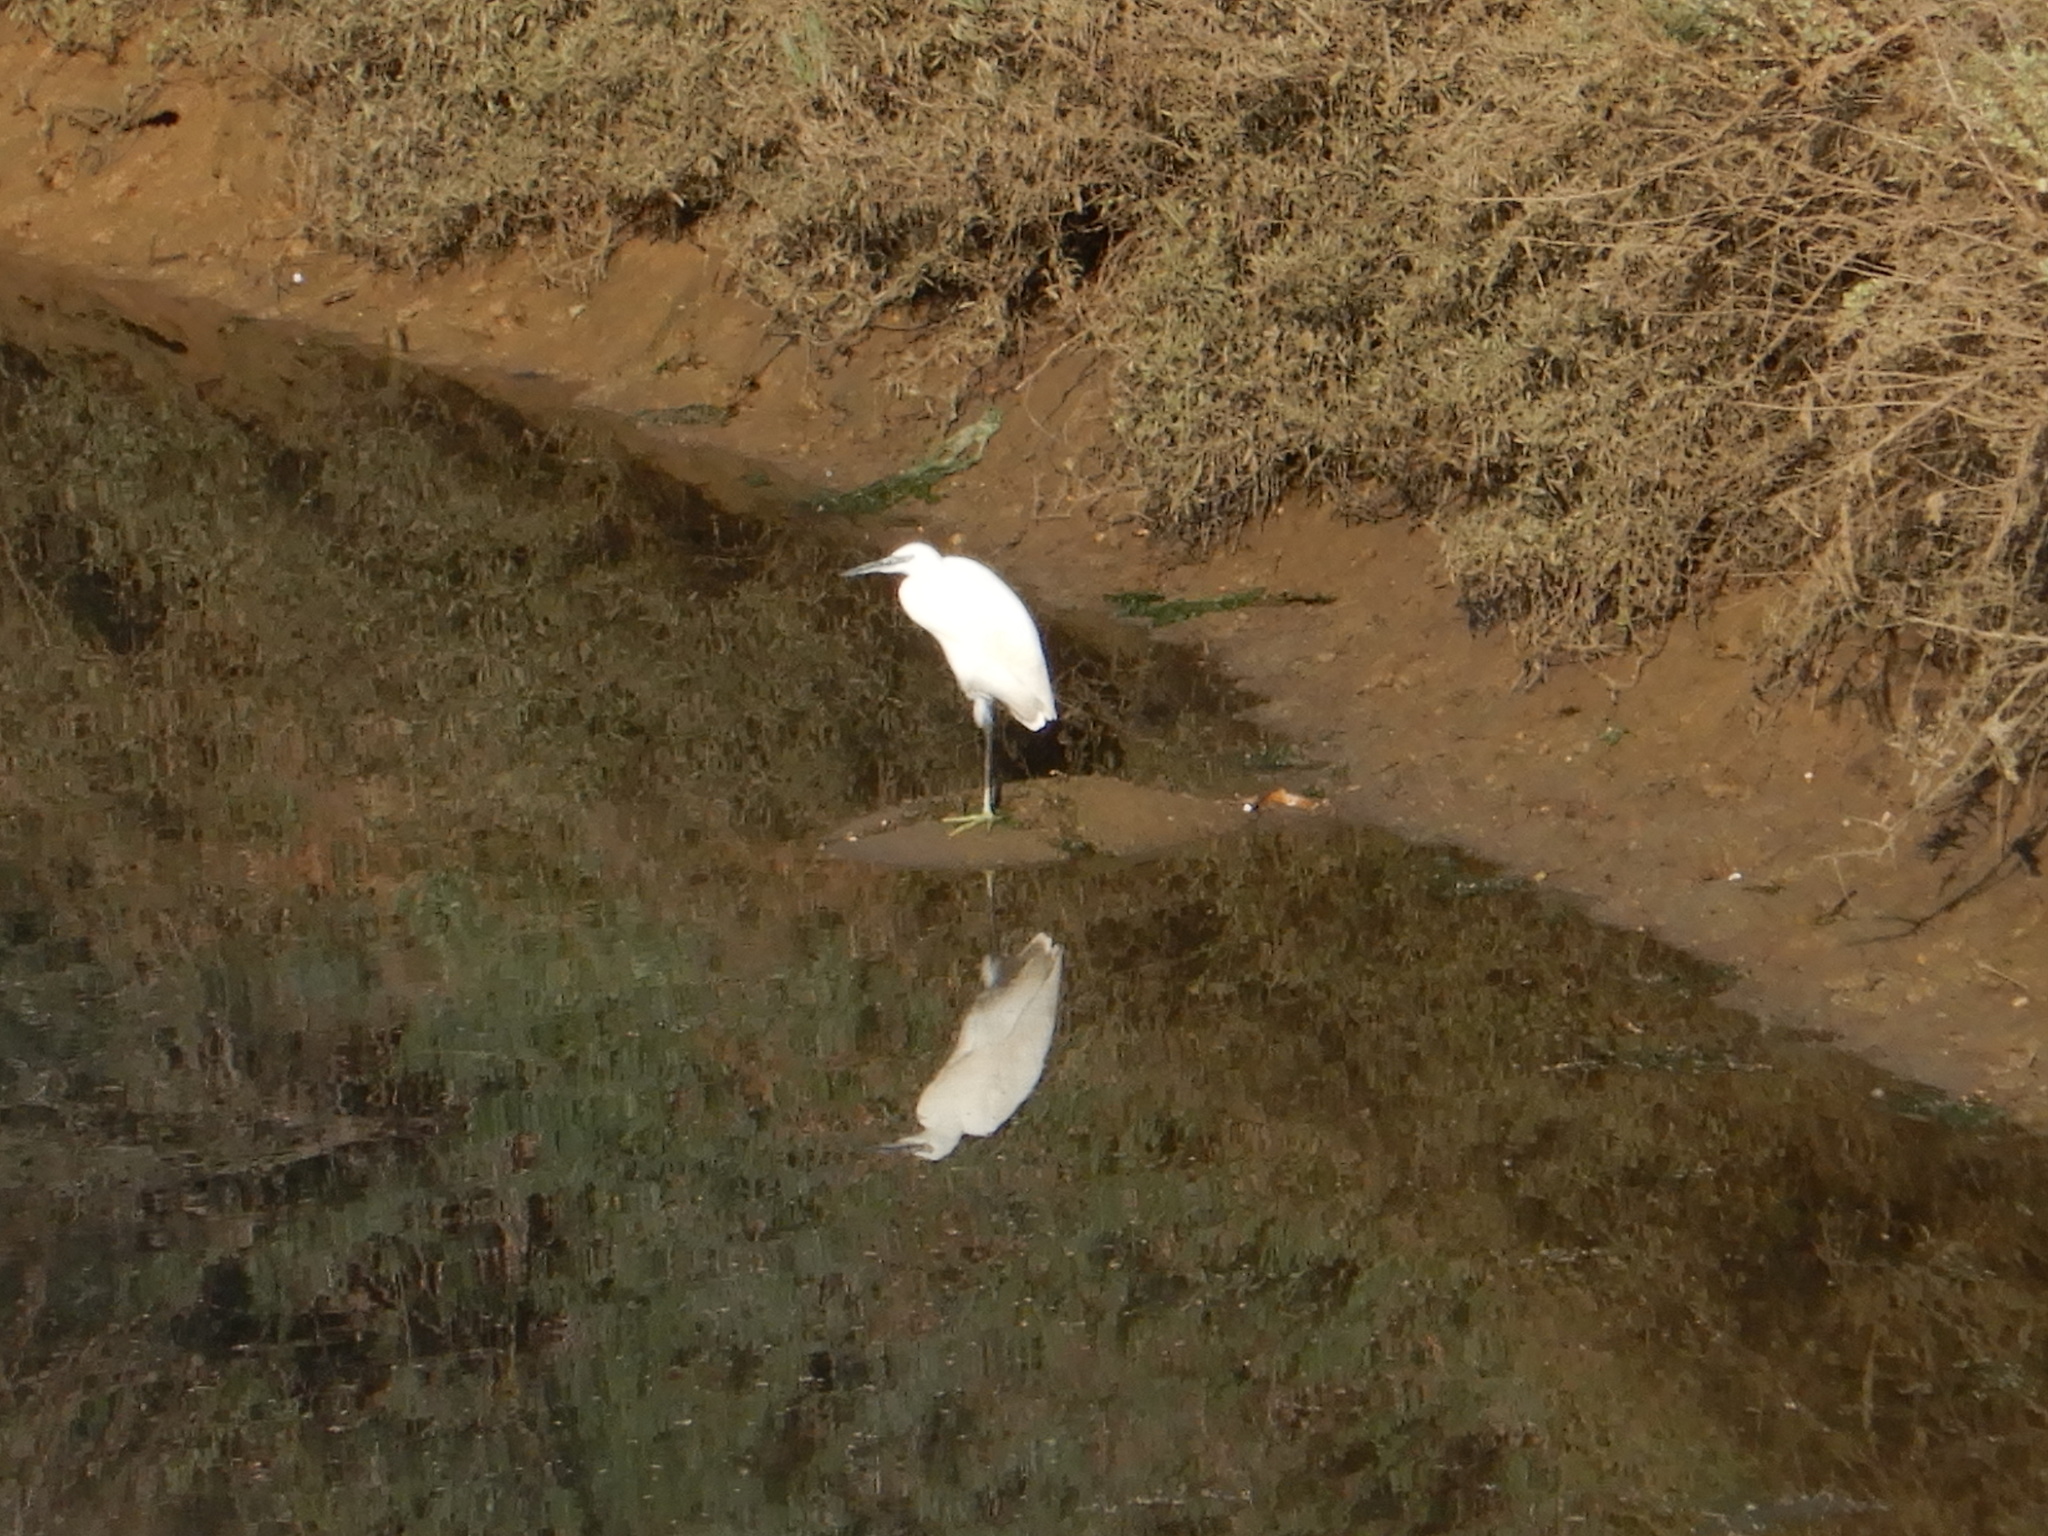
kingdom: Animalia
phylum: Chordata
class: Aves
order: Pelecaniformes
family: Ardeidae
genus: Egretta
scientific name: Egretta garzetta
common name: Little egret
